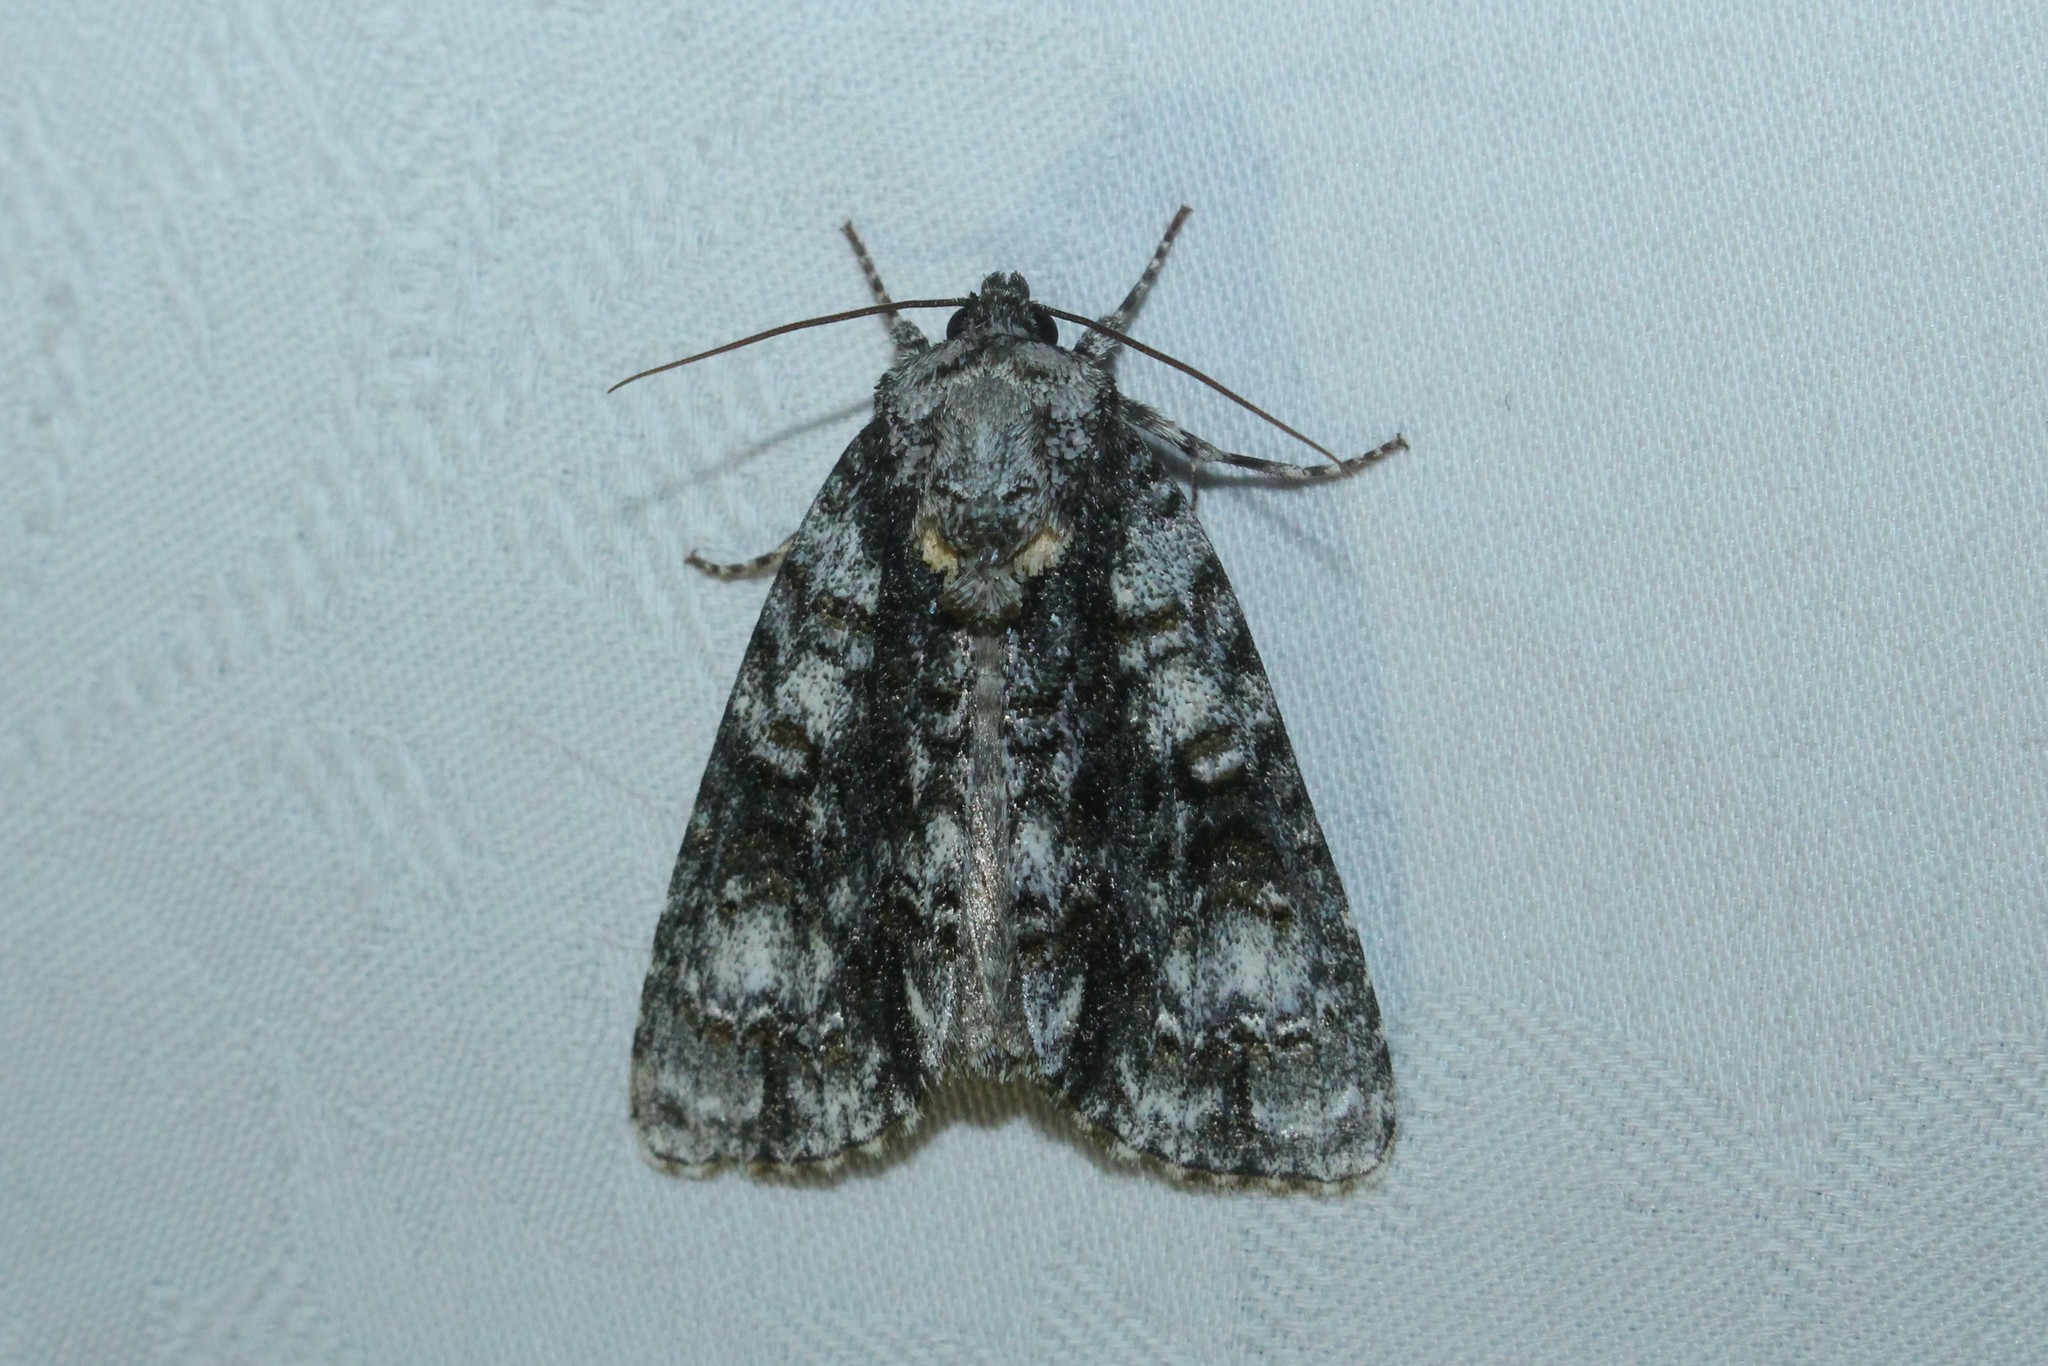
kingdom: Animalia
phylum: Arthropoda
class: Insecta
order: Lepidoptera
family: Noctuidae
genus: Acronicta
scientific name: Acronicta superans
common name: Splendid dagger
